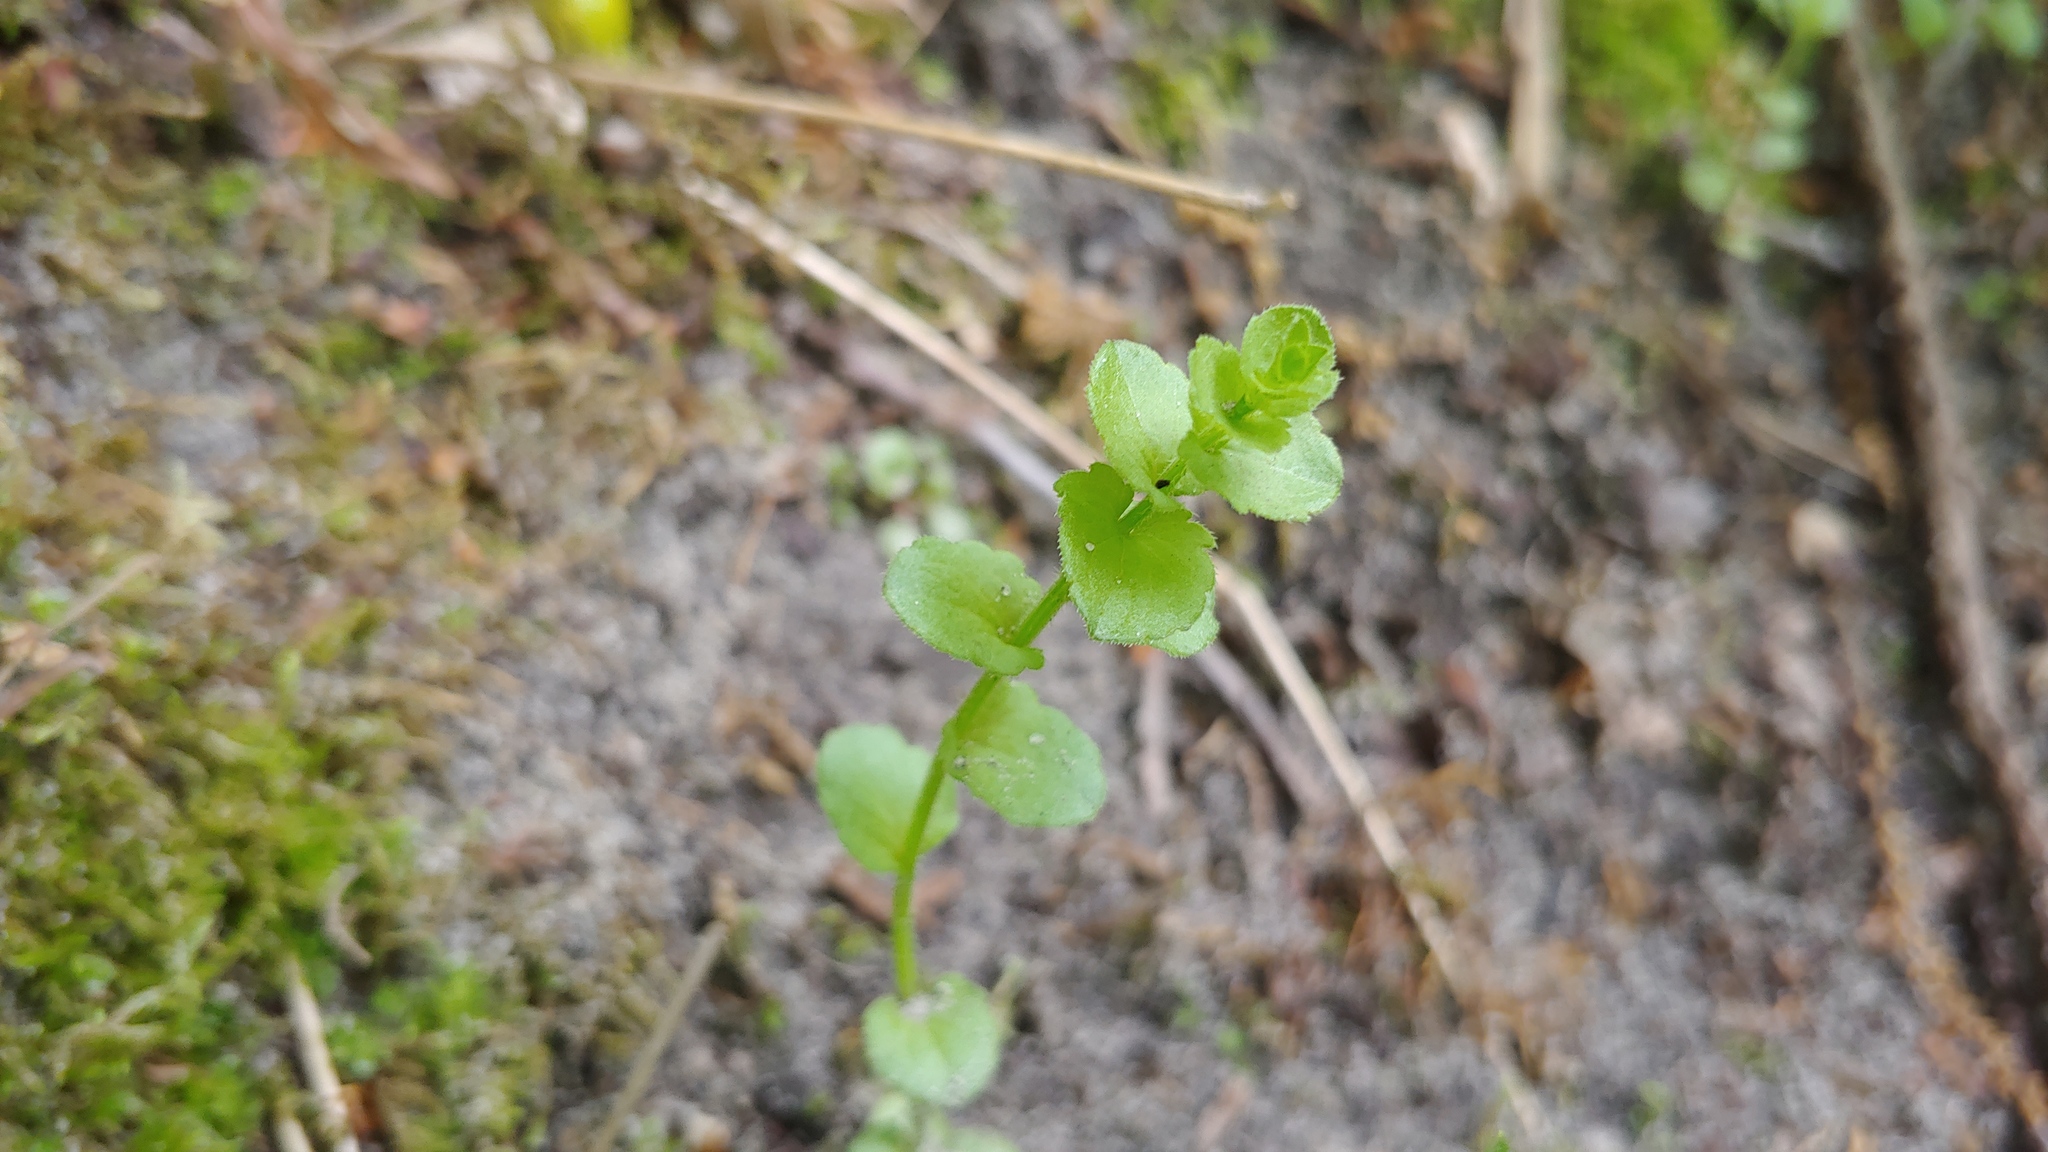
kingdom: Plantae
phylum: Tracheophyta
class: Magnoliopsida
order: Asterales
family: Campanulaceae
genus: Triodanis
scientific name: Triodanis perfoliata
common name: Clasping venus' looking-glass
